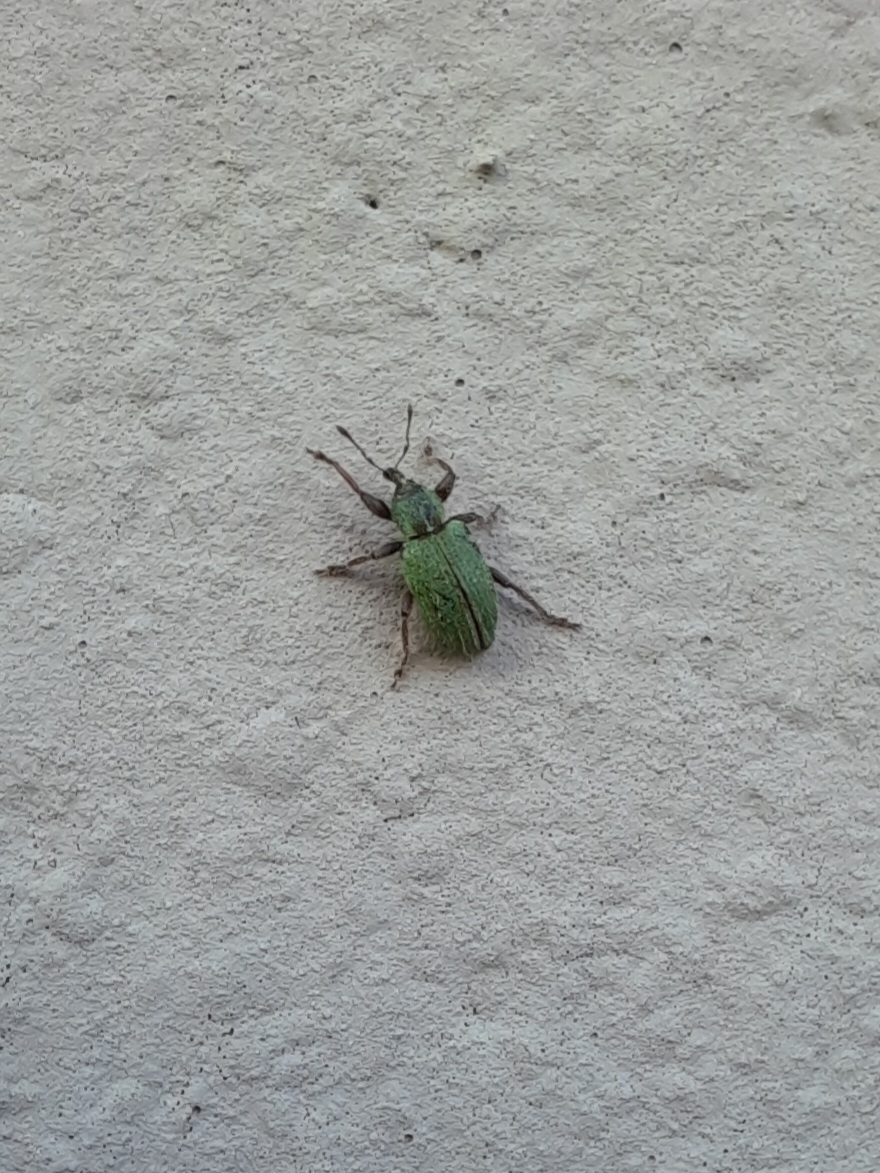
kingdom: Animalia
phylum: Arthropoda
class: Insecta
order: Coleoptera
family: Curculionidae
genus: Hypera
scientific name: Hypera nigrirostris
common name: Black-beaked green weevil
